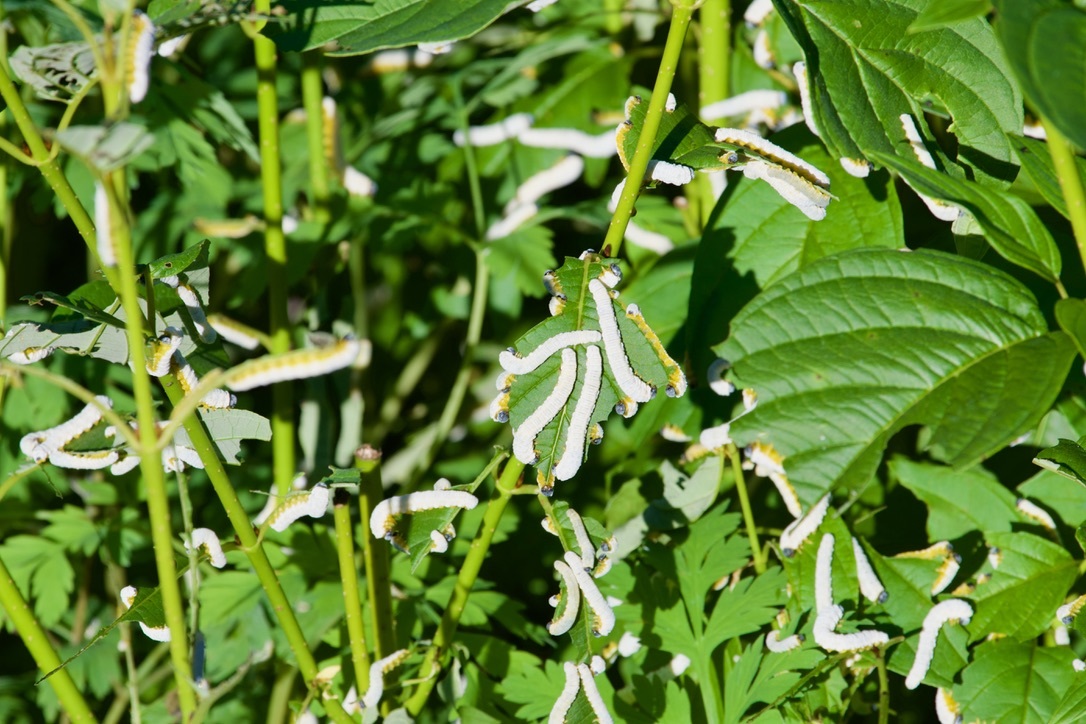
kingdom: Animalia
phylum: Arthropoda
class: Insecta
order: Hymenoptera
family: Tenthredinidae
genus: Macremphytus
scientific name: Macremphytus testaceus
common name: Dogwood sawfly
